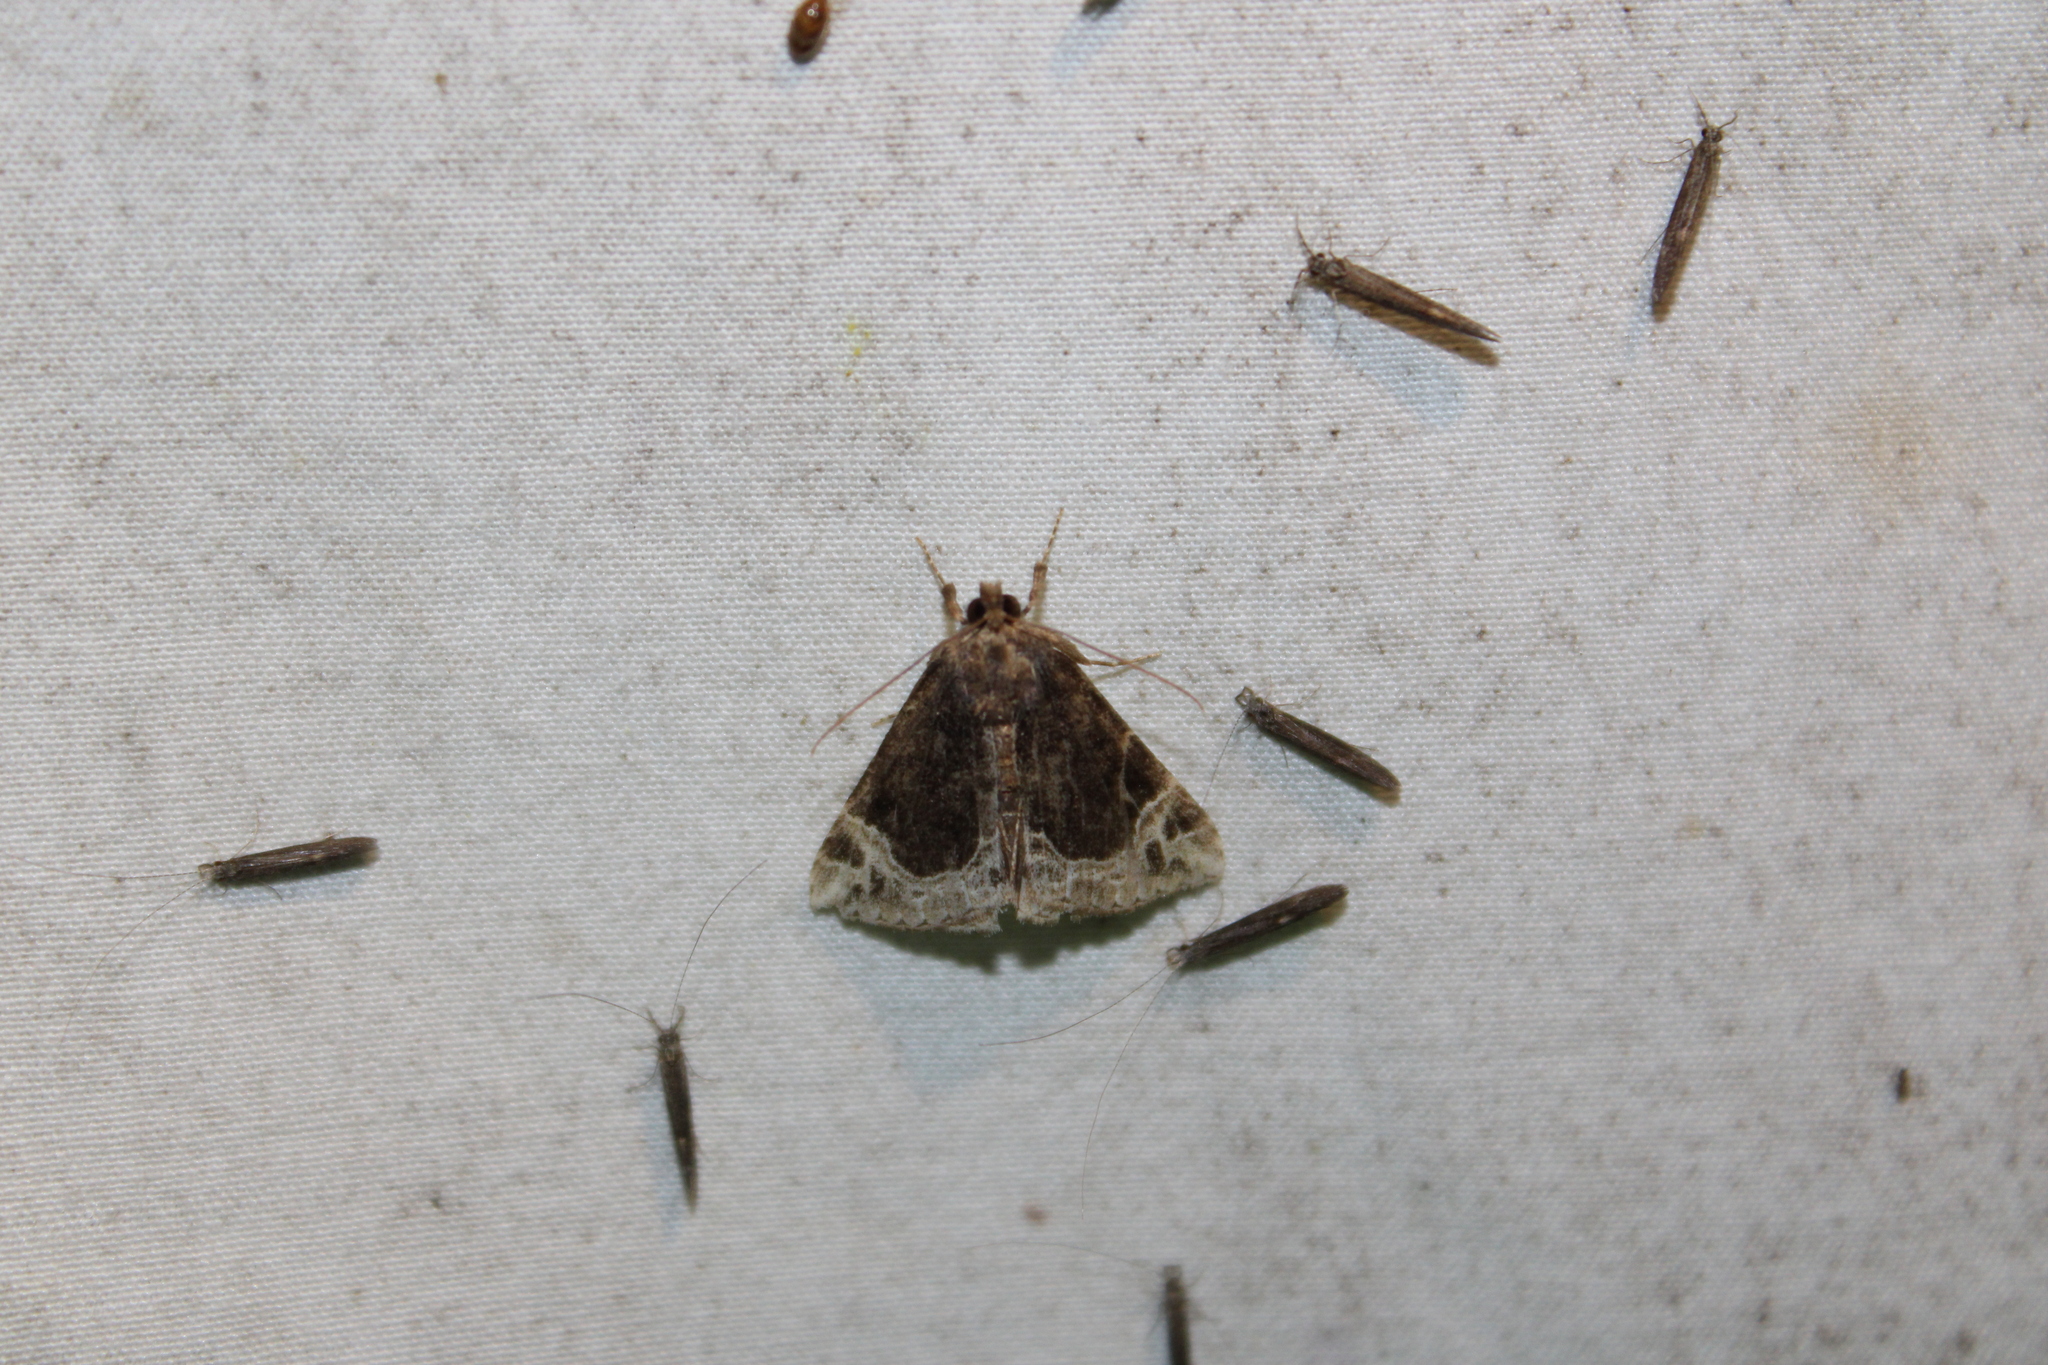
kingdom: Animalia
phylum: Arthropoda
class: Insecta
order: Lepidoptera
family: Erebidae
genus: Hypena
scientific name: Hypena abalienalis
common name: White-lined snout
